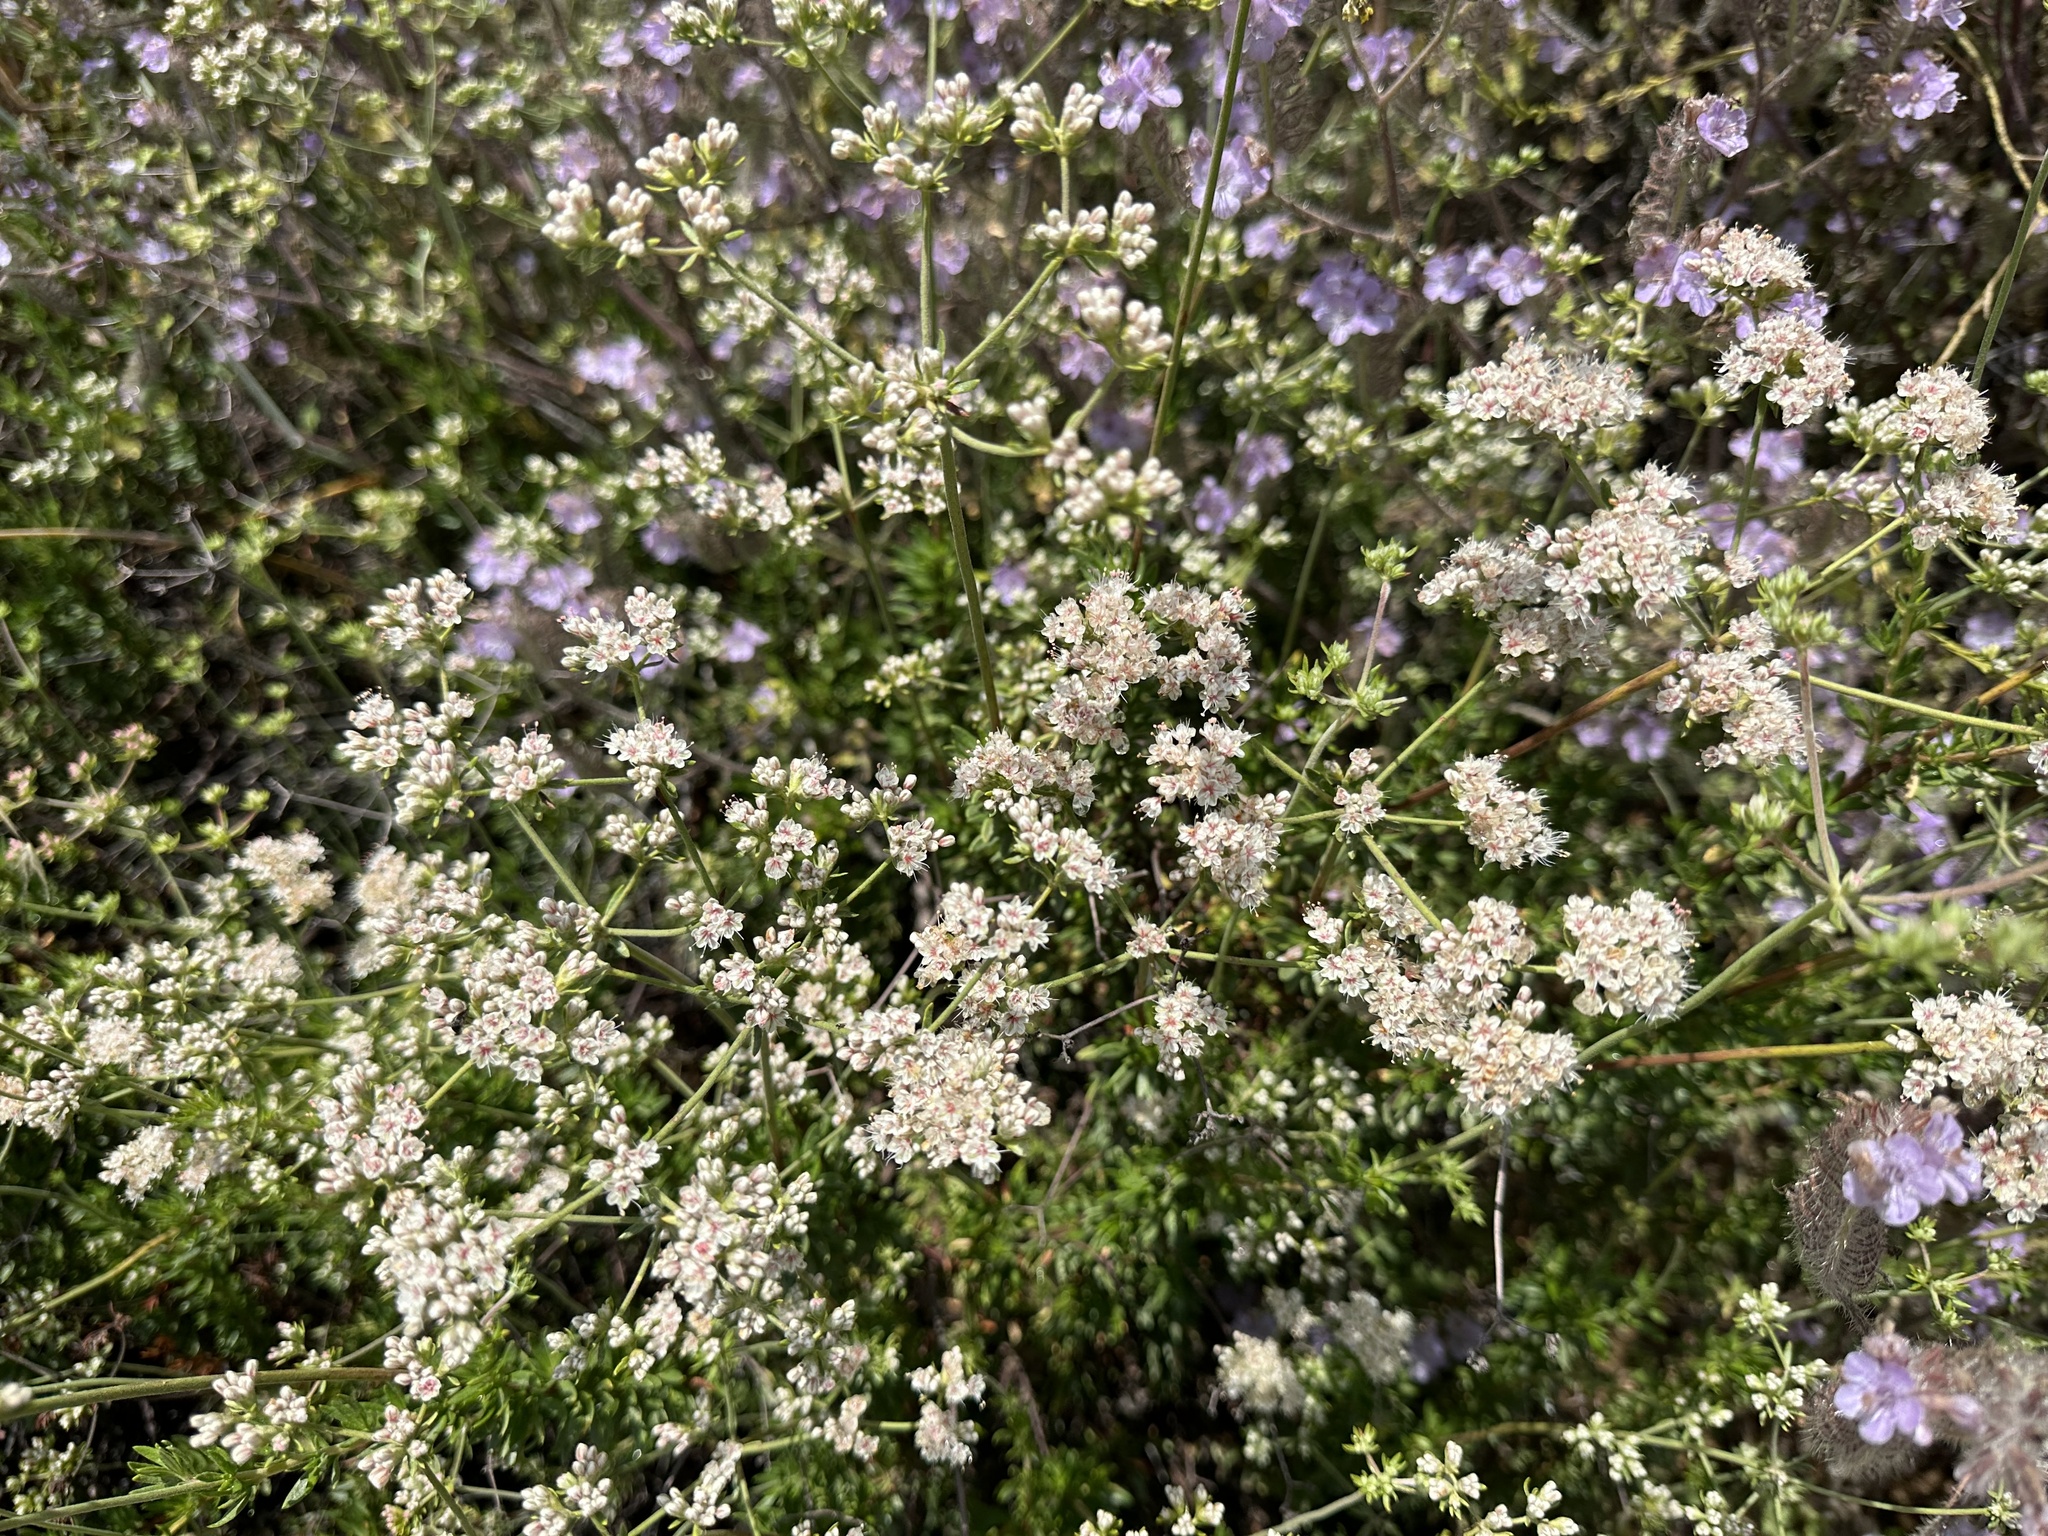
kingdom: Plantae
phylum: Tracheophyta
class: Magnoliopsida
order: Caryophyllales
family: Polygonaceae
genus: Eriogonum
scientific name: Eriogonum fasciculatum
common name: California wild buckwheat
